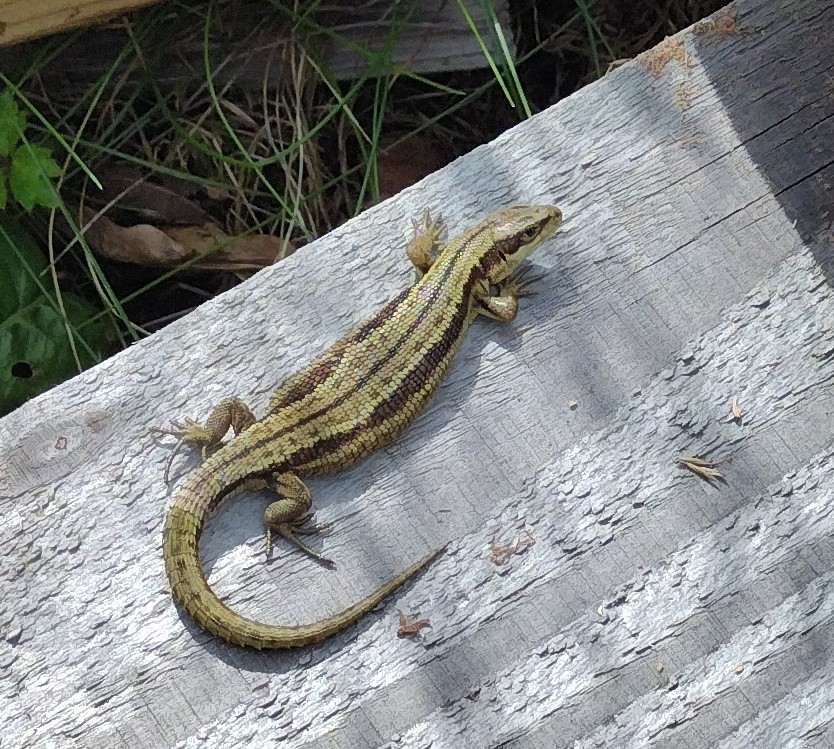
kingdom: Animalia
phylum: Chordata
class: Squamata
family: Lacertidae
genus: Zootoca
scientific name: Zootoca vivipara
